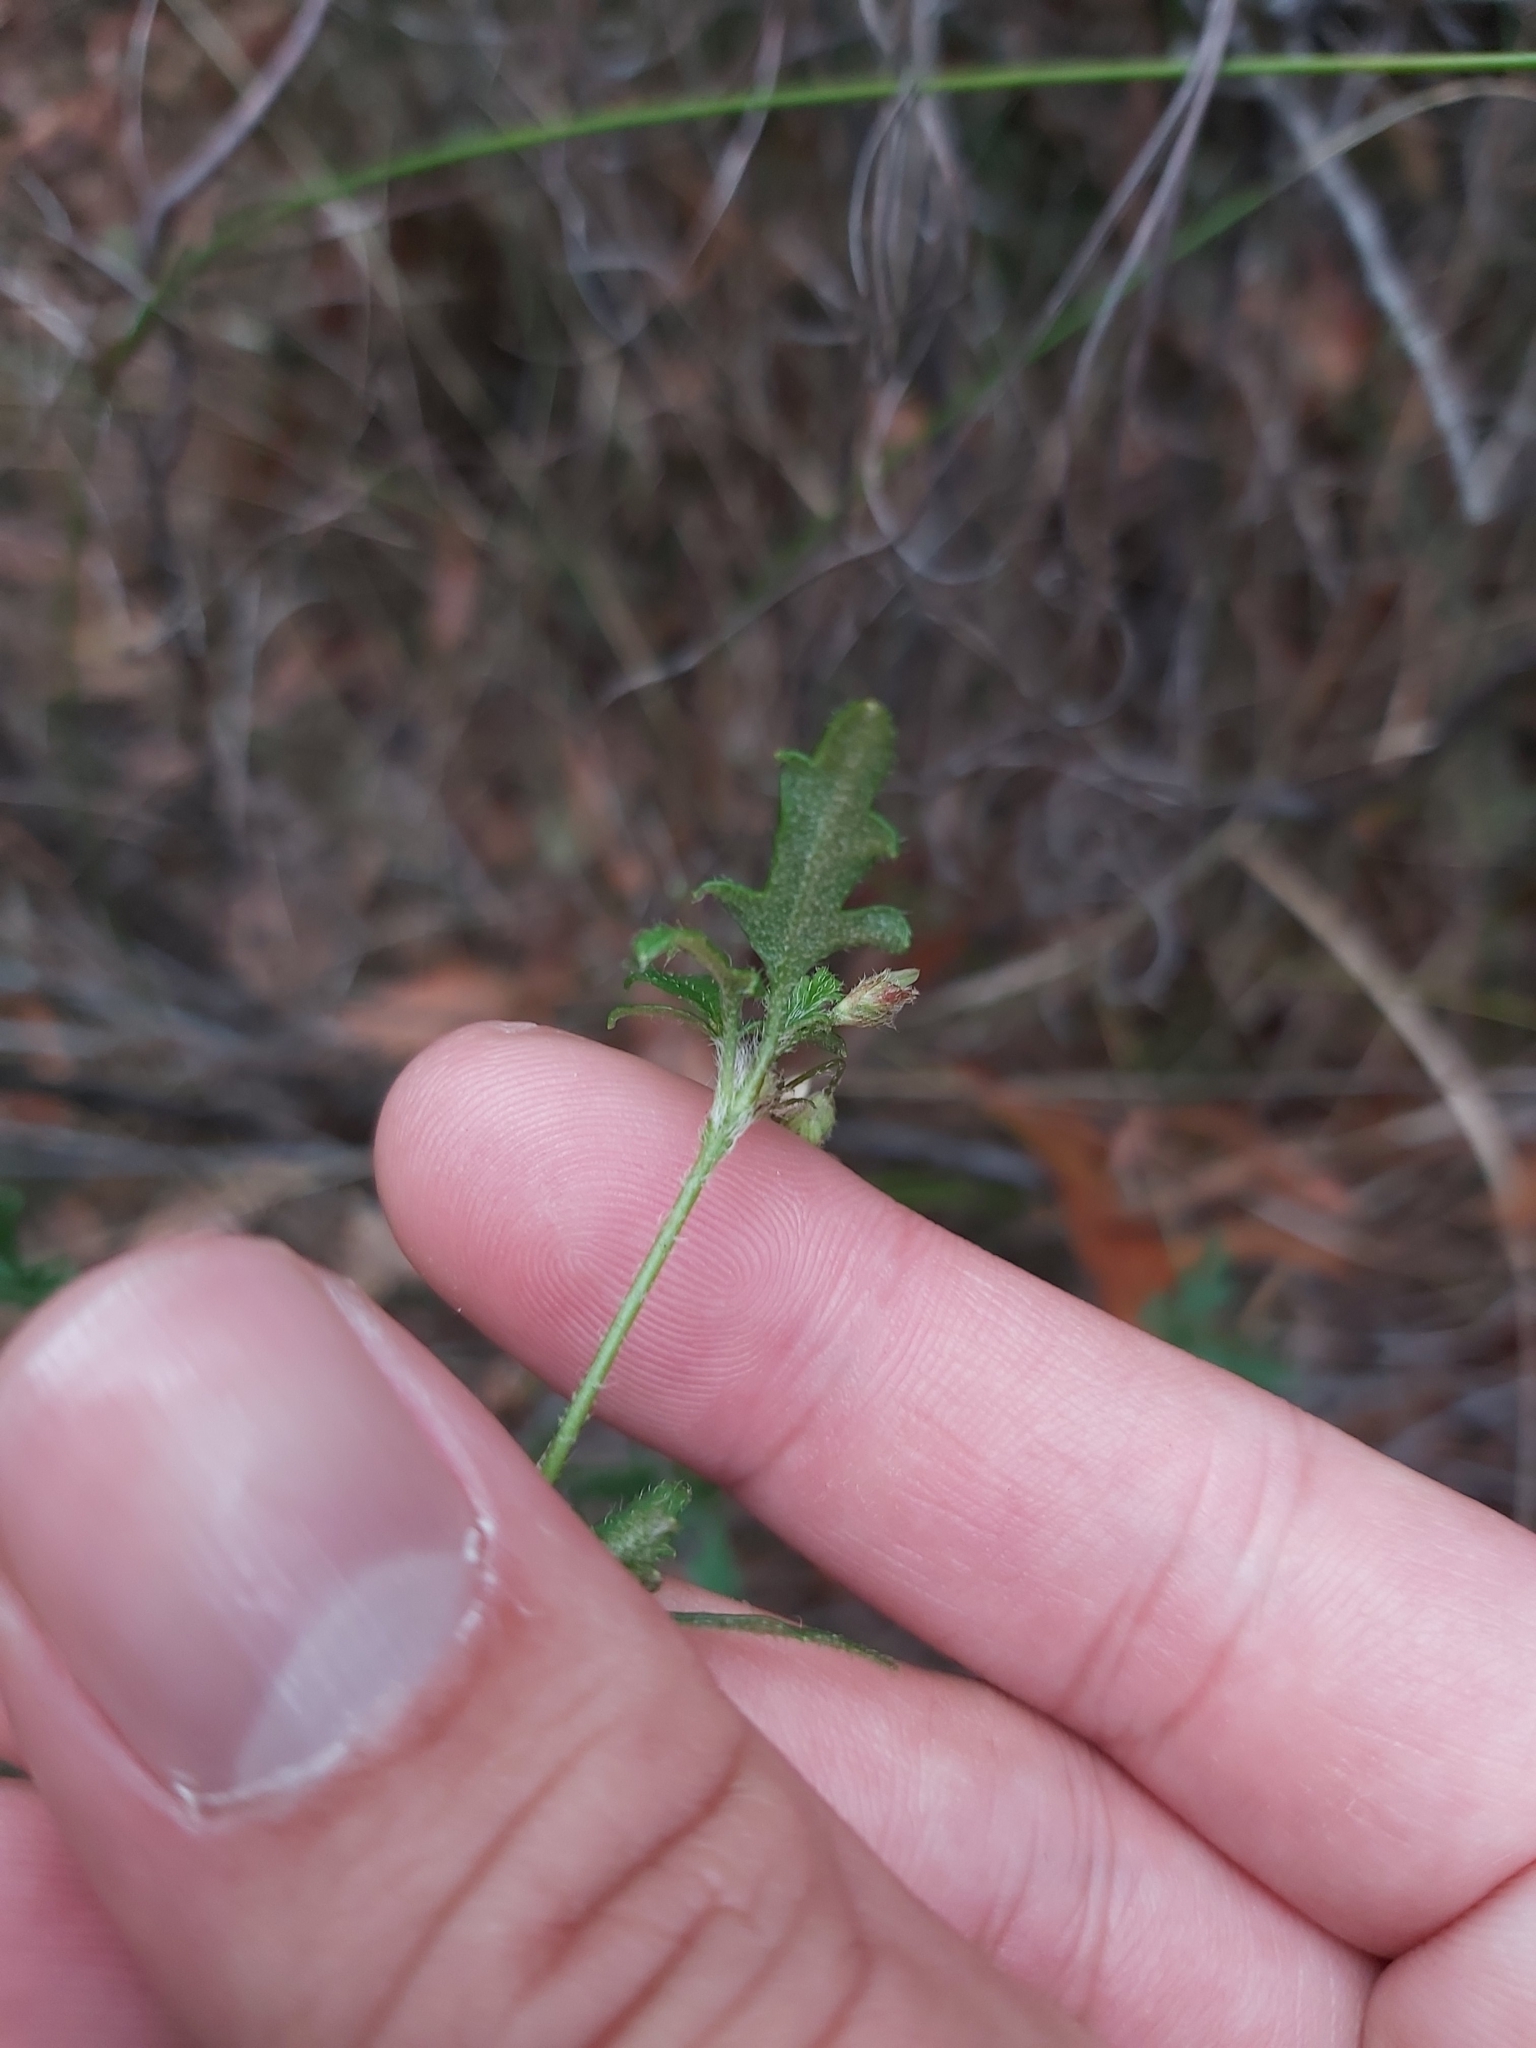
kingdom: Plantae
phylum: Tracheophyta
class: Magnoliopsida
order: Apiales
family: Apiaceae
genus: Xanthosia
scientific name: Xanthosia pilosa
